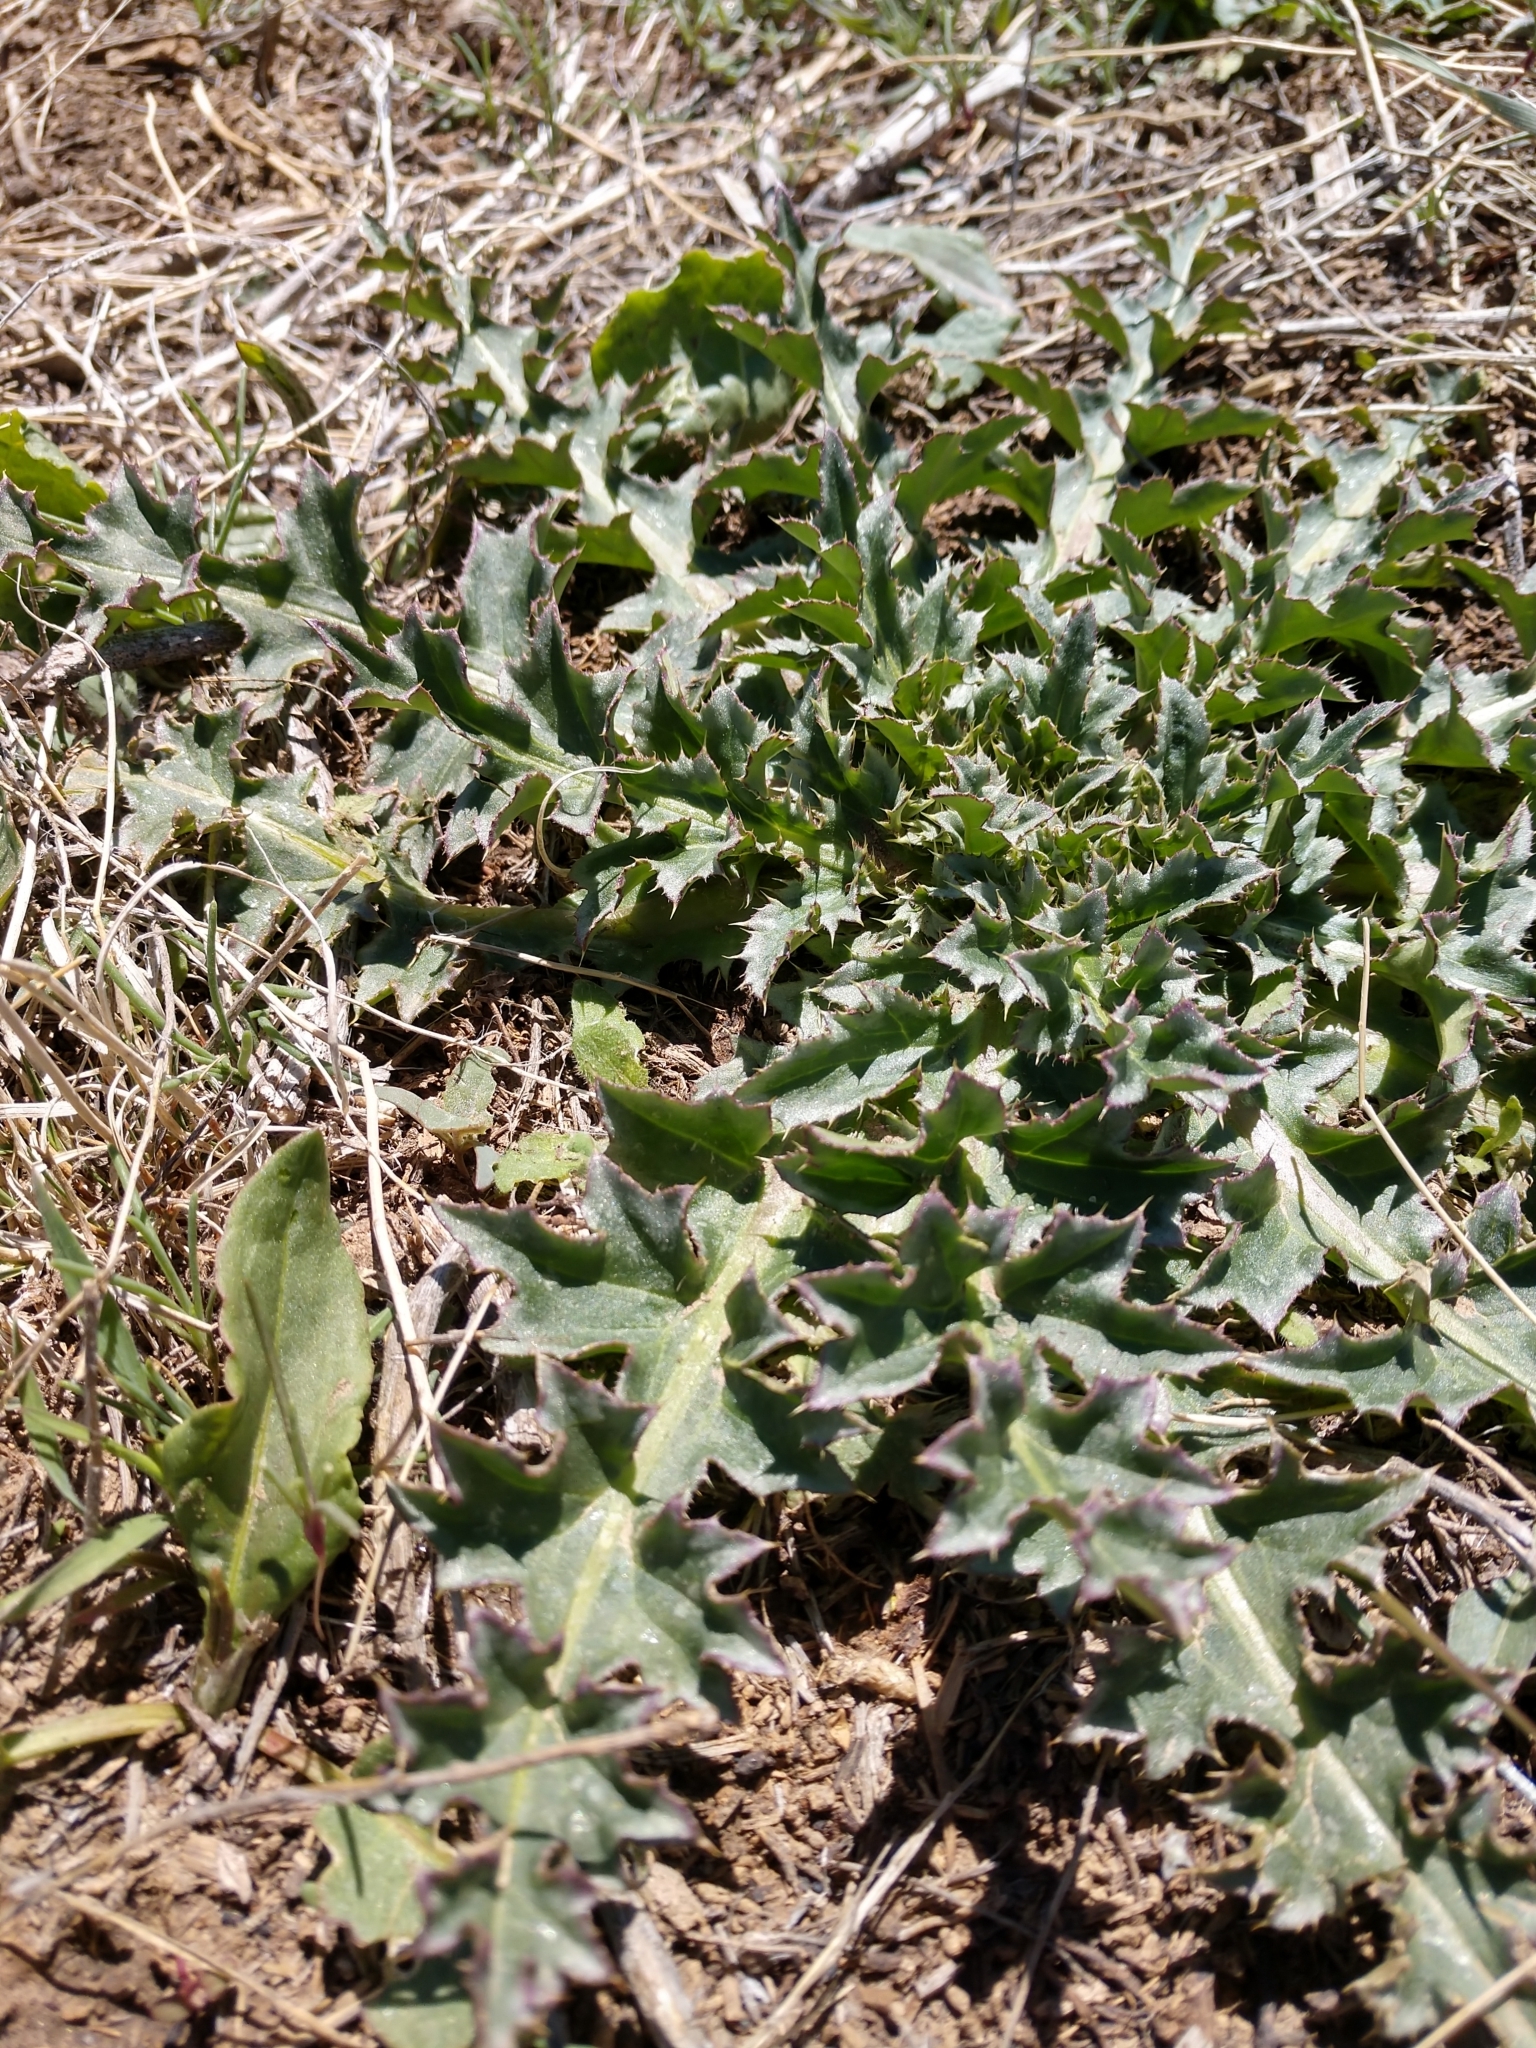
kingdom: Plantae
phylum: Tracheophyta
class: Magnoliopsida
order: Asterales
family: Asteraceae
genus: Carduus
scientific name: Carduus nutans
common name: Musk thistle
